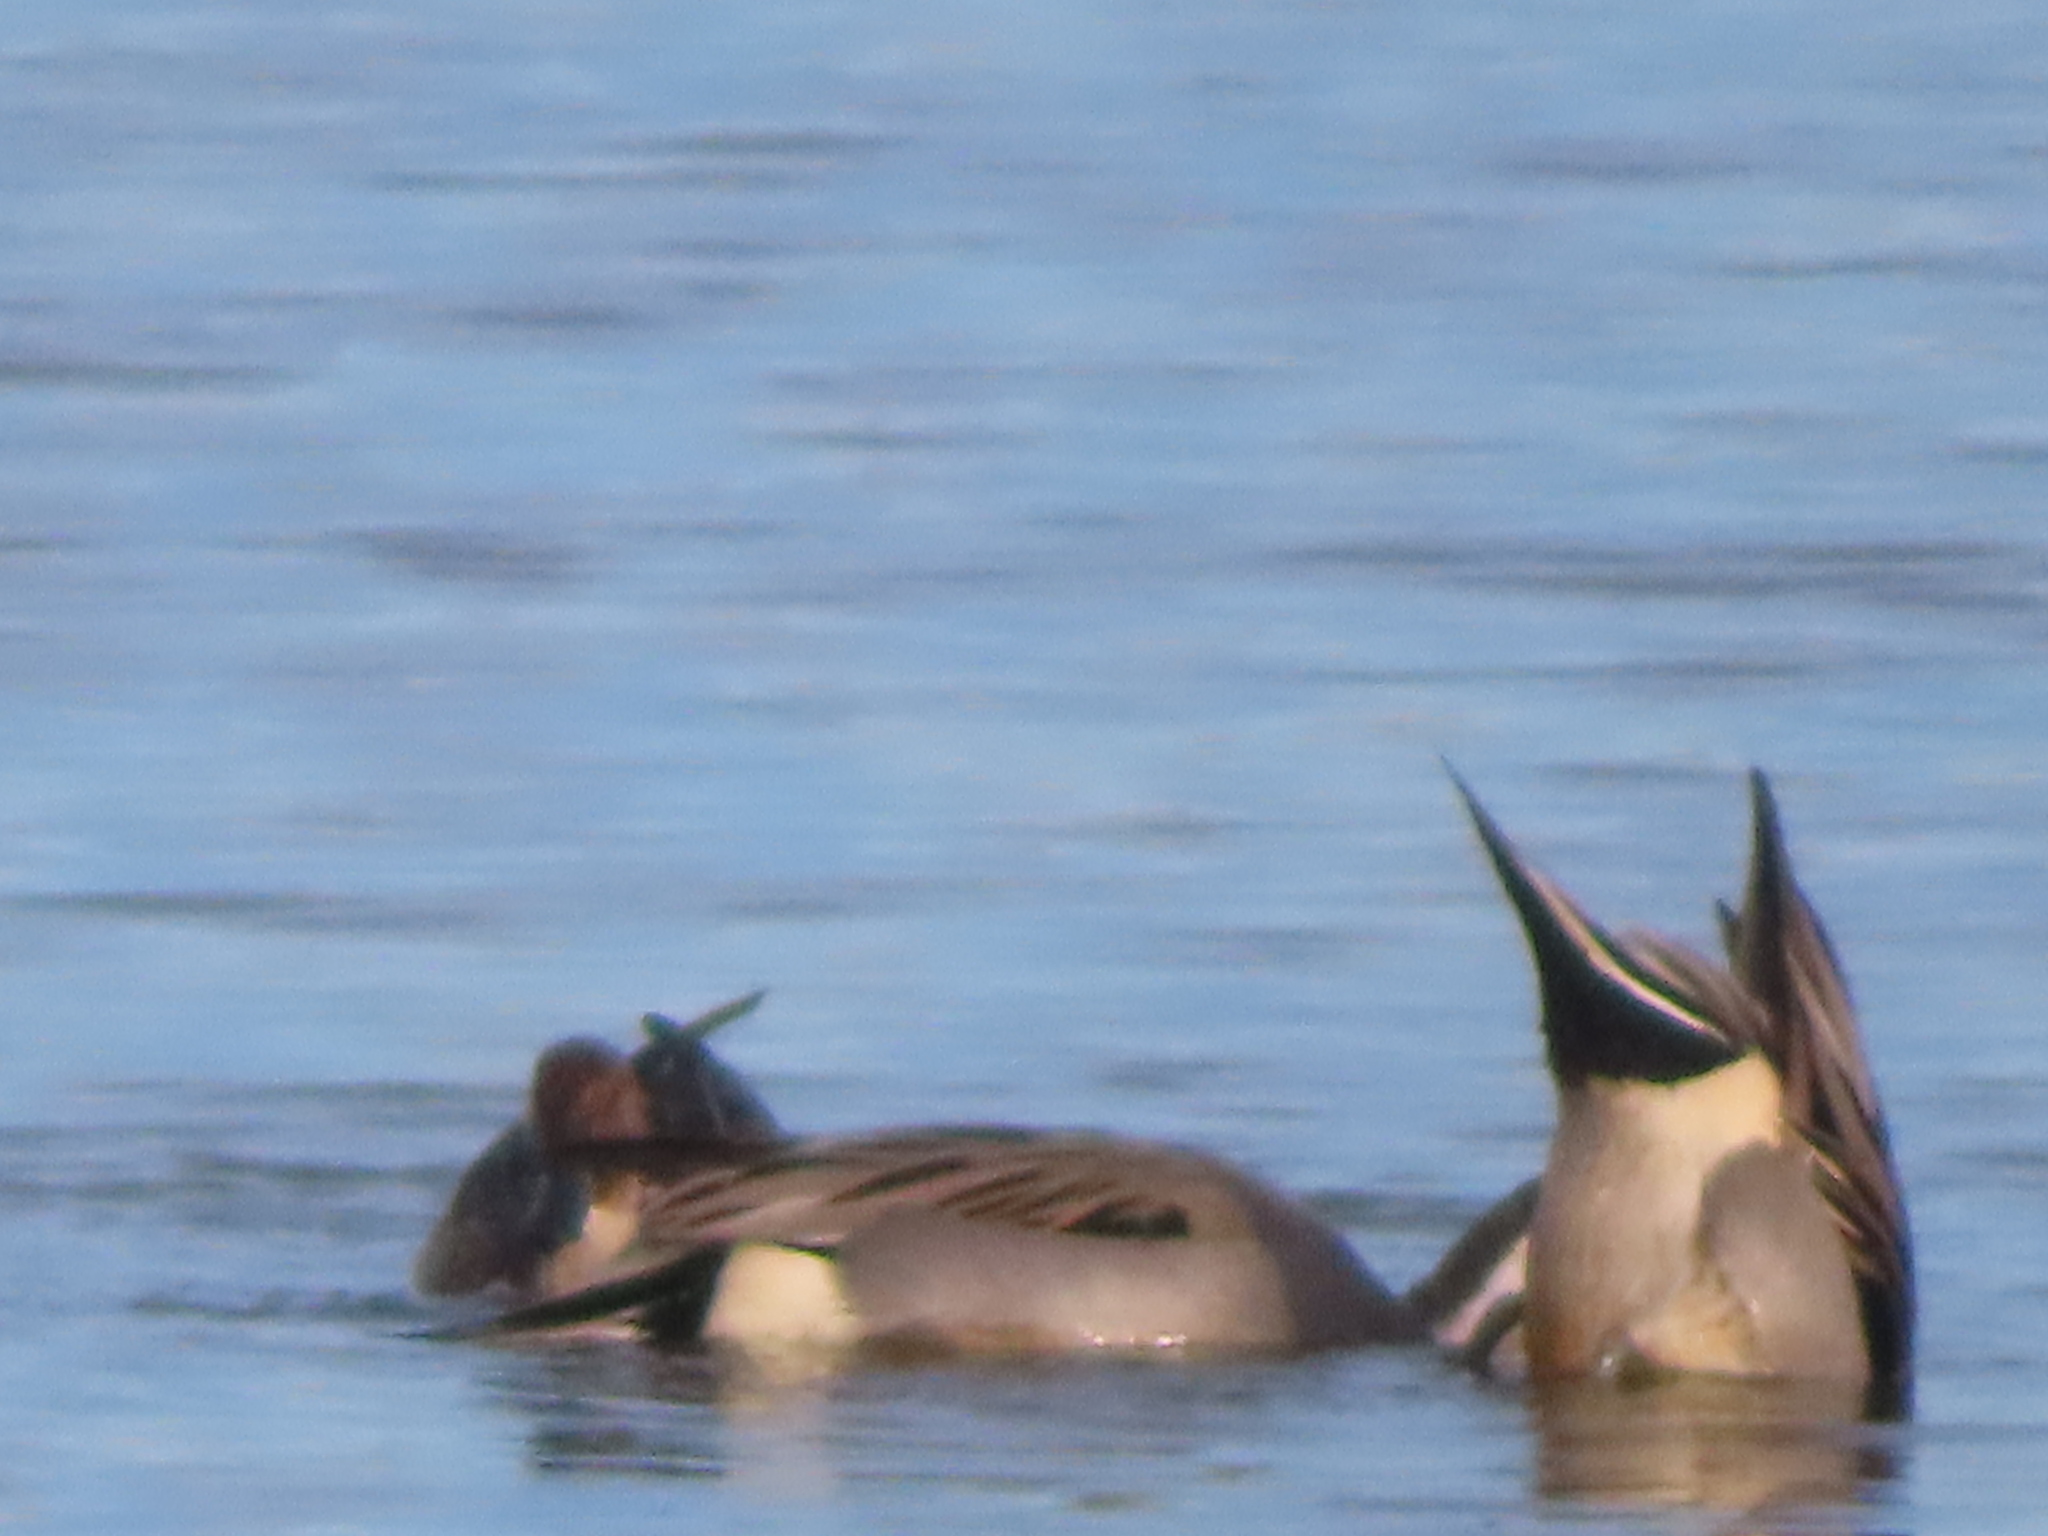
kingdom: Animalia
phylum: Chordata
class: Aves
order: Anseriformes
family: Anatidae
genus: Anas
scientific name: Anas acuta
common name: Northern pintail
